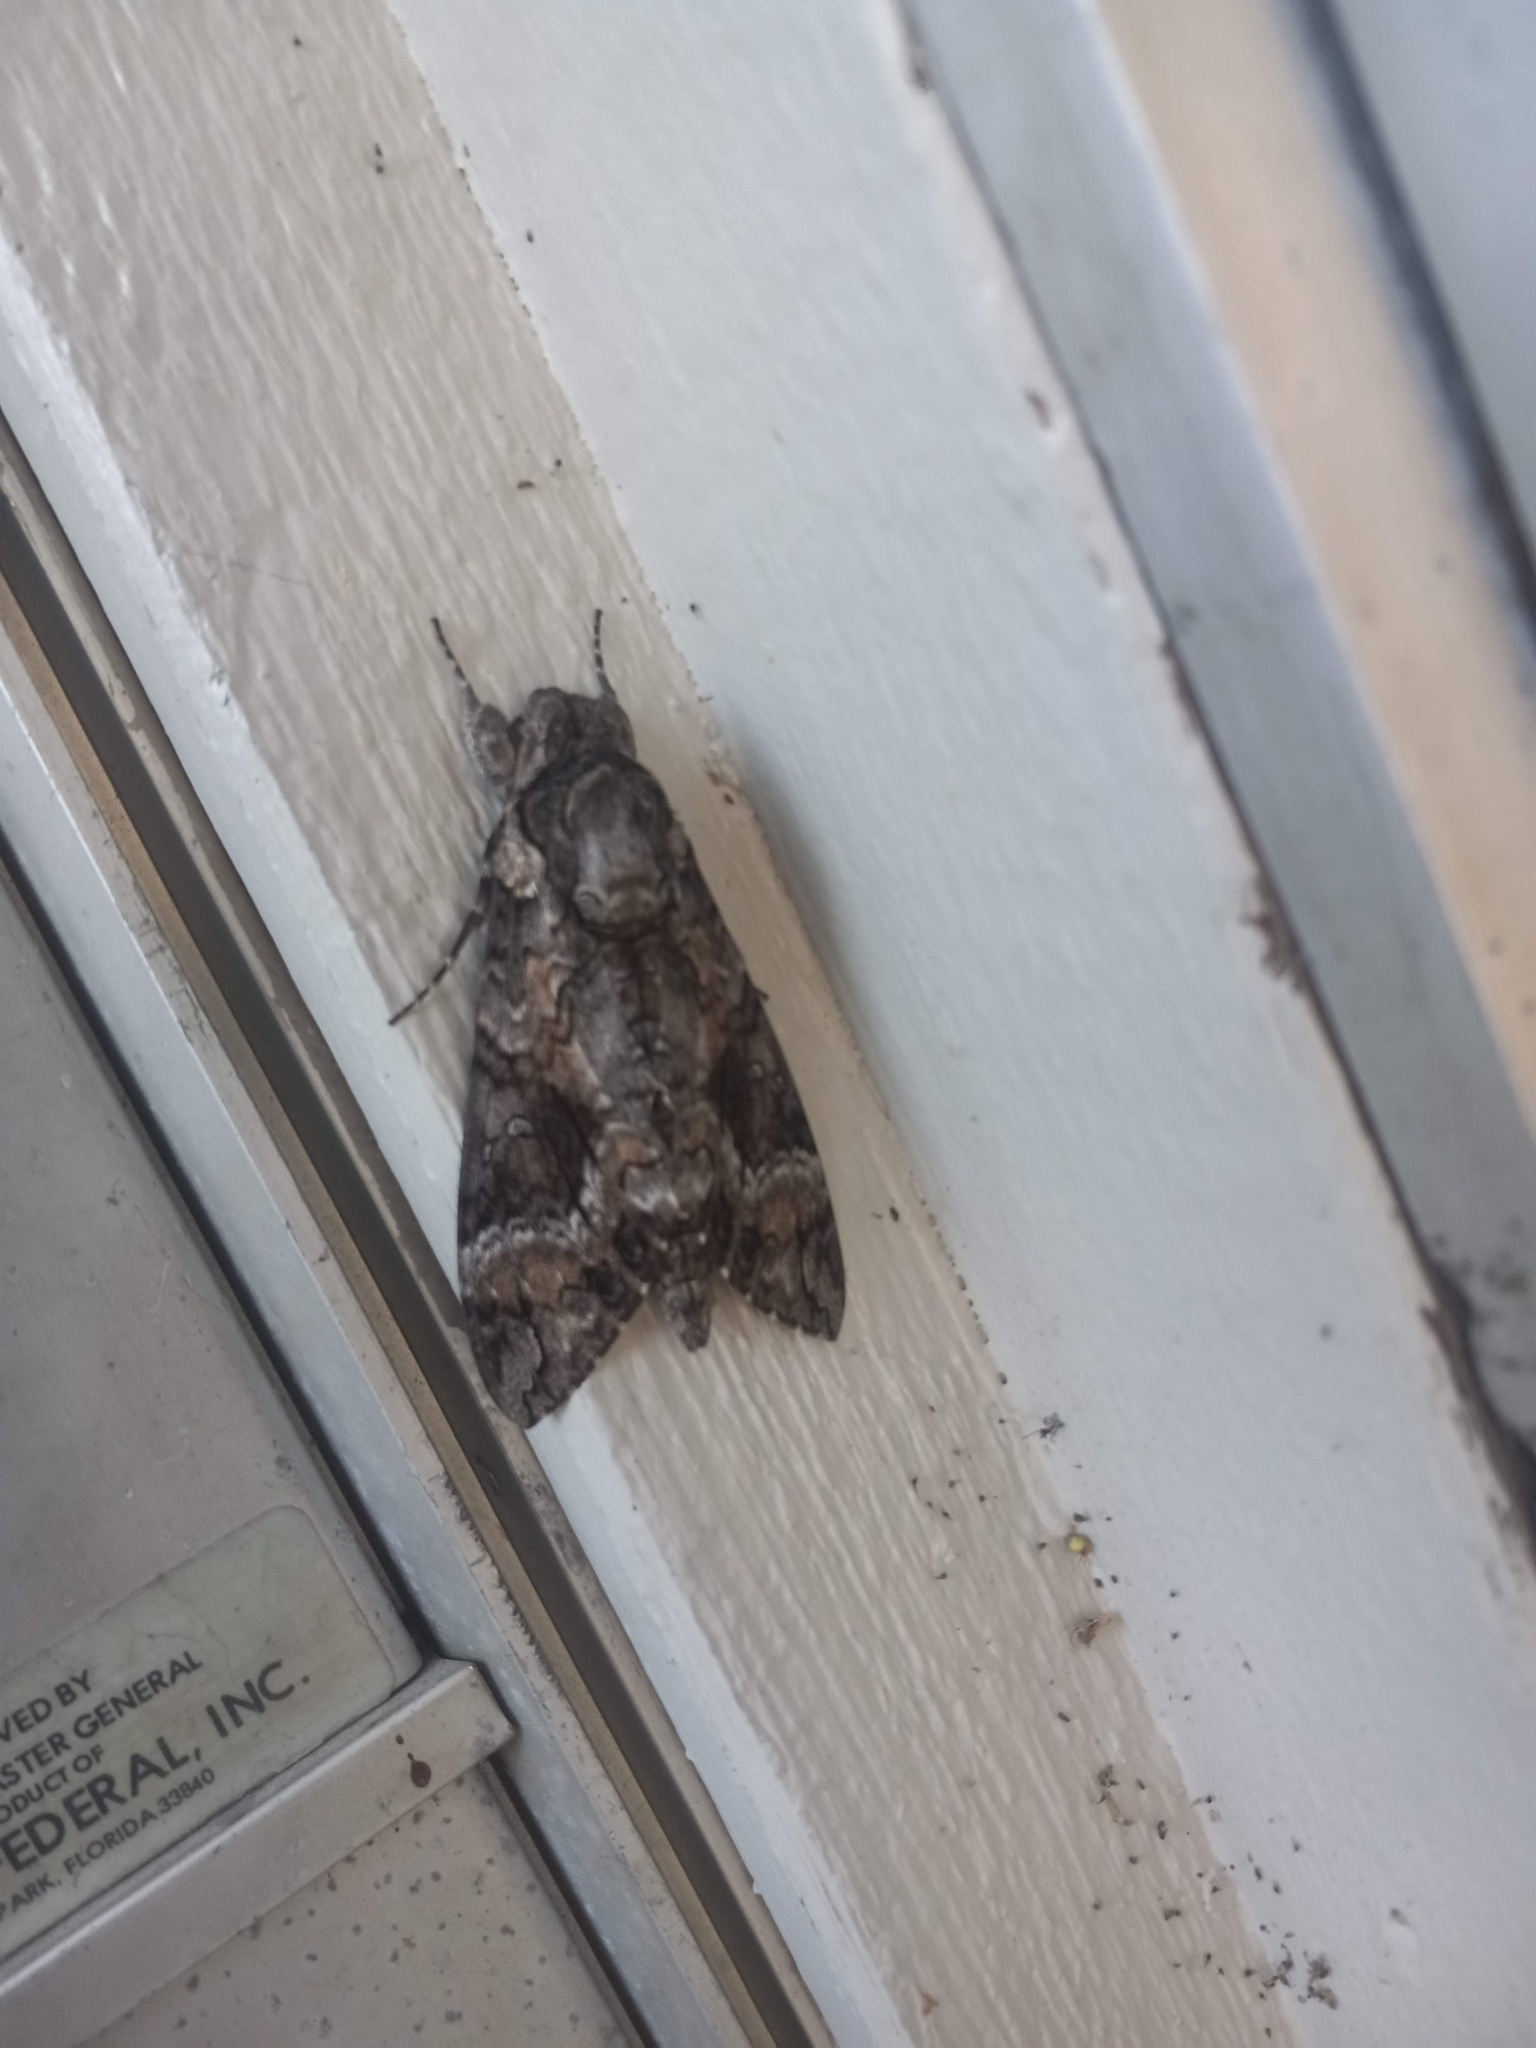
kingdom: Animalia
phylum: Arthropoda
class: Insecta
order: Lepidoptera
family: Sphingidae
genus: Agrius
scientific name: Agrius cingulata
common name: Pink-spotted hawkmoth
